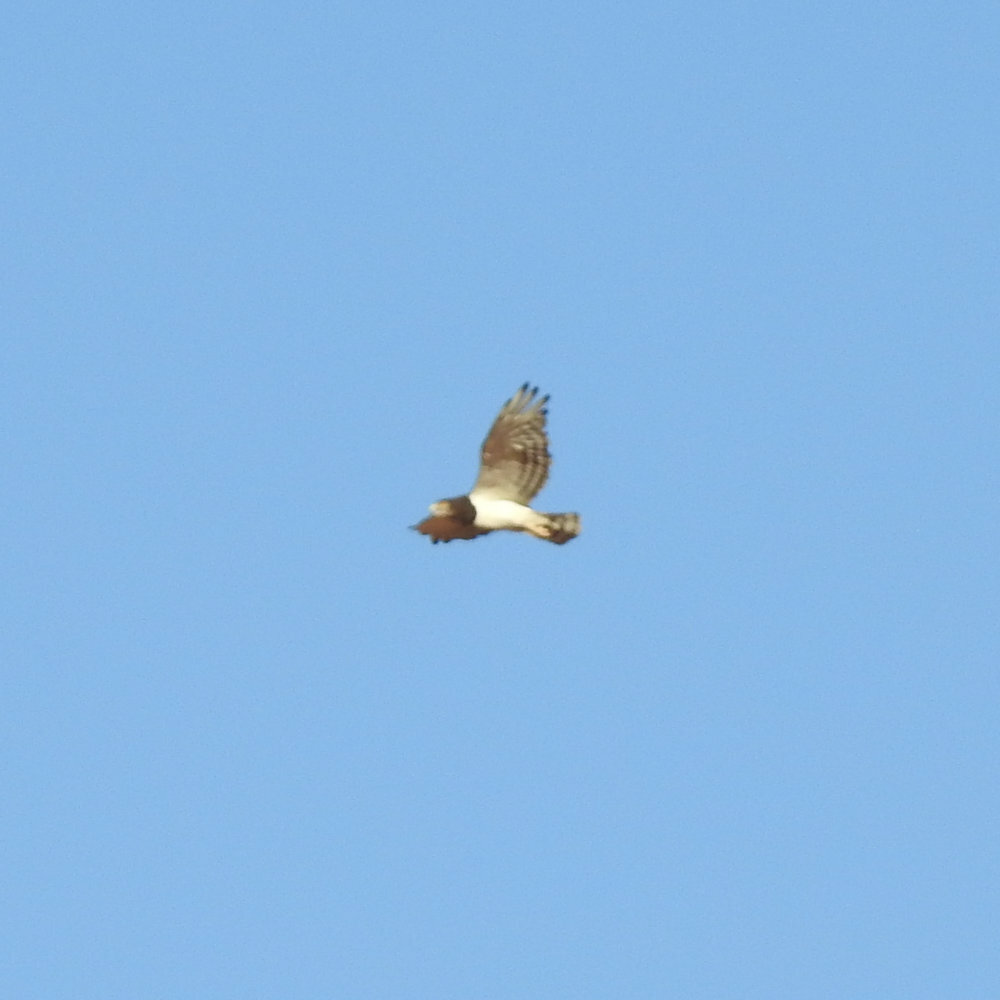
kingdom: Animalia
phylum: Chordata
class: Aves
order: Accipitriformes
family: Accipitridae
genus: Circaetus
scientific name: Circaetus pectoralis
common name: Black-chested snake eagle
